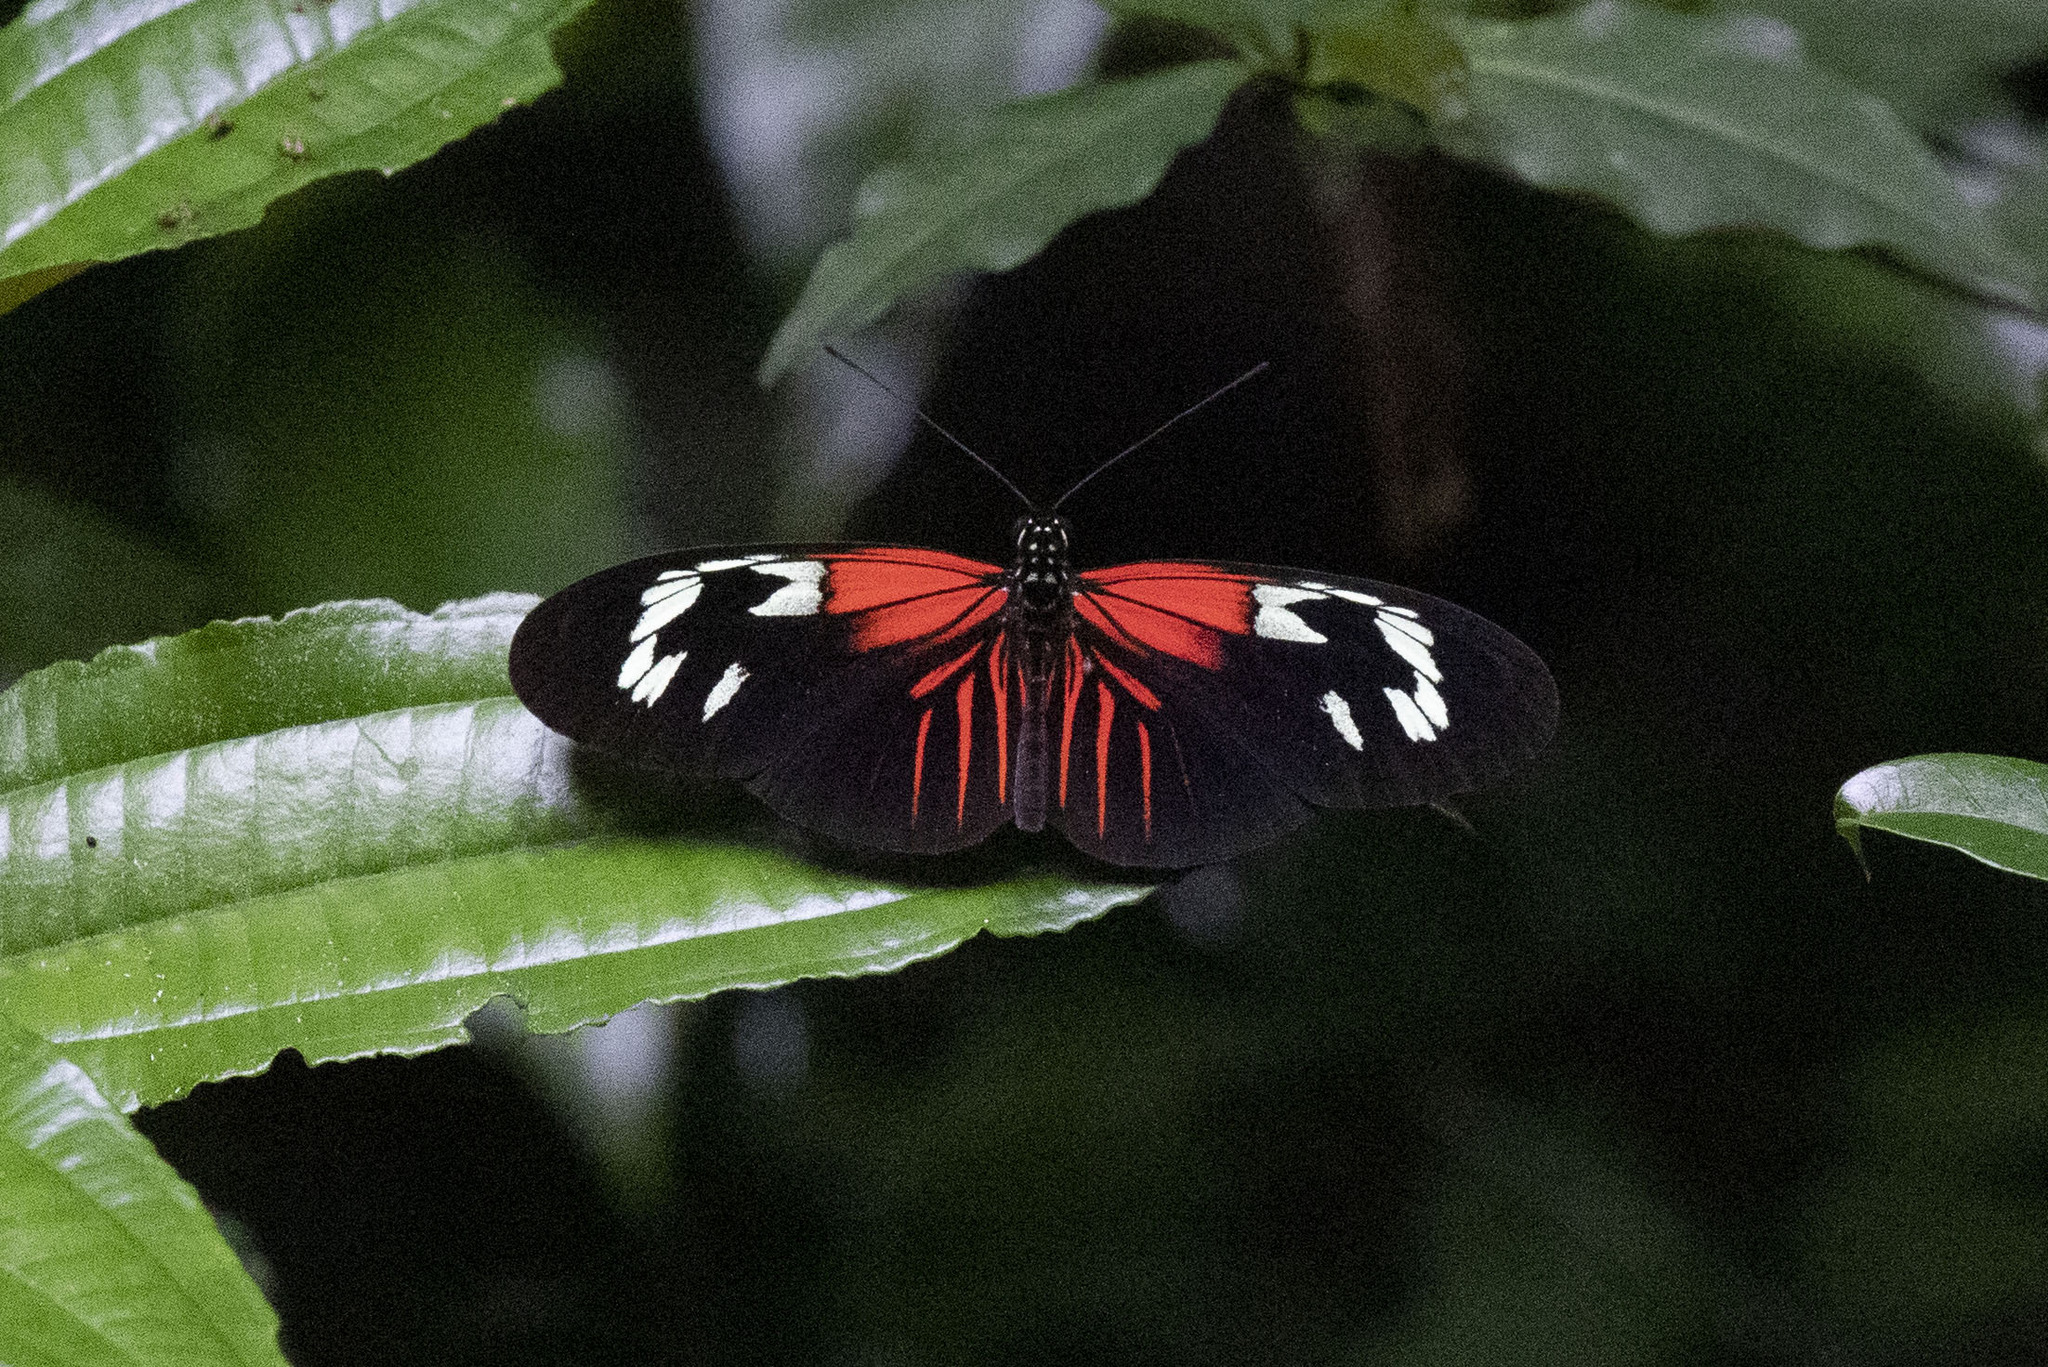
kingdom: Animalia
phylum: Arthropoda
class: Insecta
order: Lepidoptera
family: Nymphalidae
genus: Heliconius
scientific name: Heliconius erato
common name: Common patch longwing
